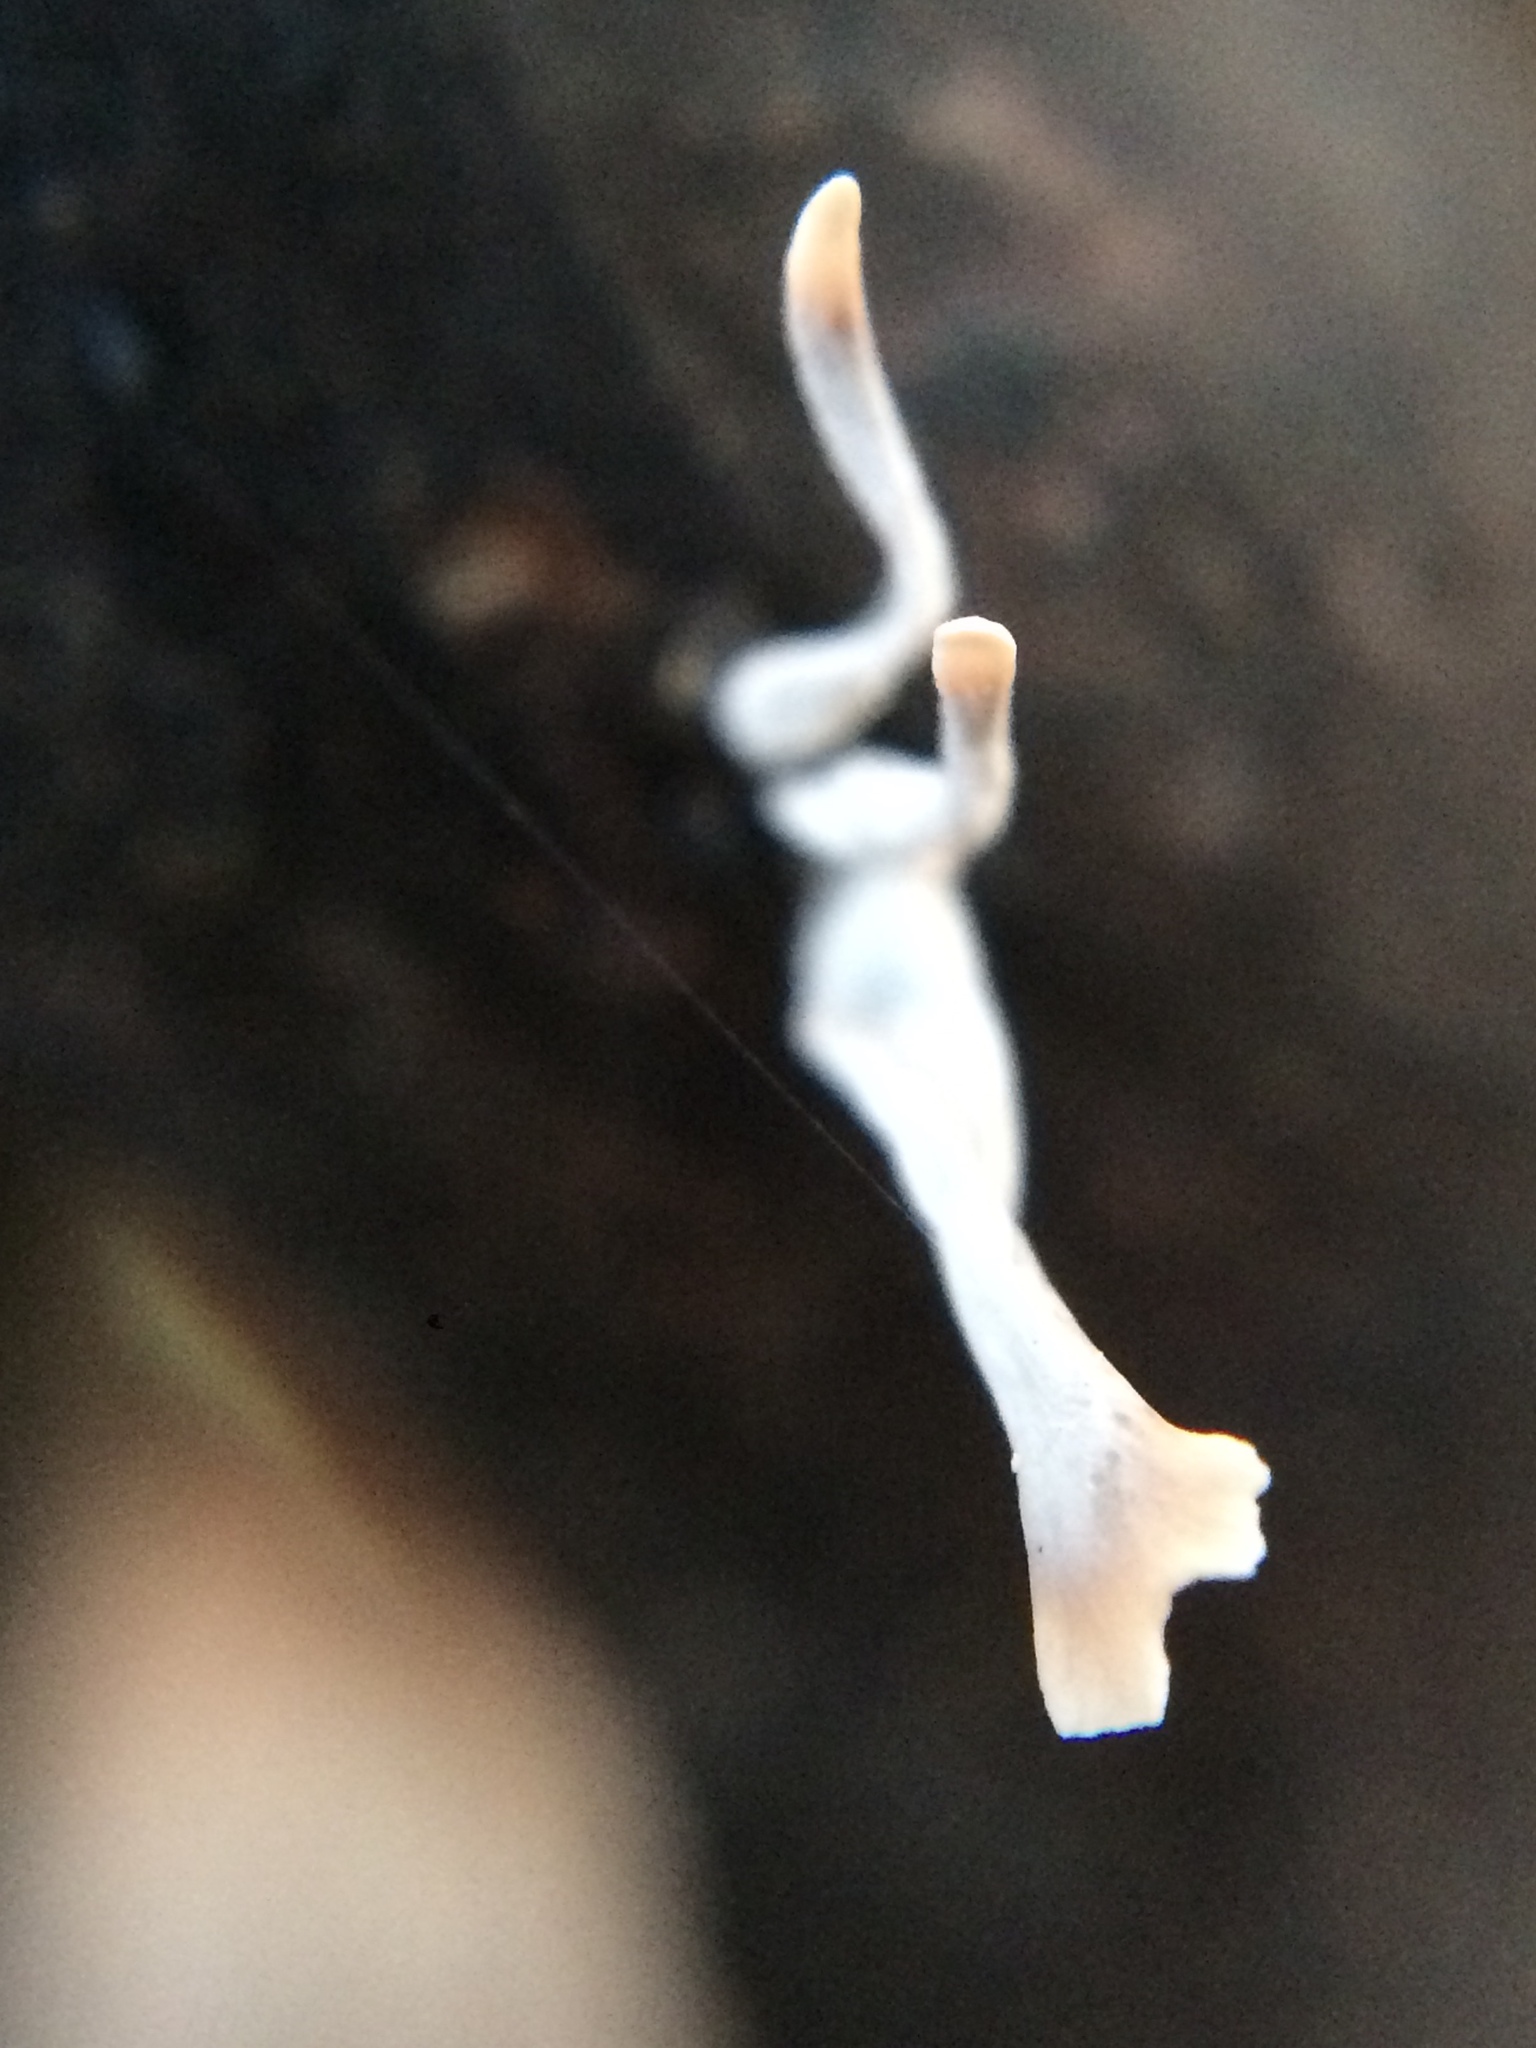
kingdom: Fungi
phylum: Ascomycota
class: Sordariomycetes
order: Xylariales
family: Xylariaceae
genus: Xylaria
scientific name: Xylaria hypoxylon
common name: Candle-snuff fungus
